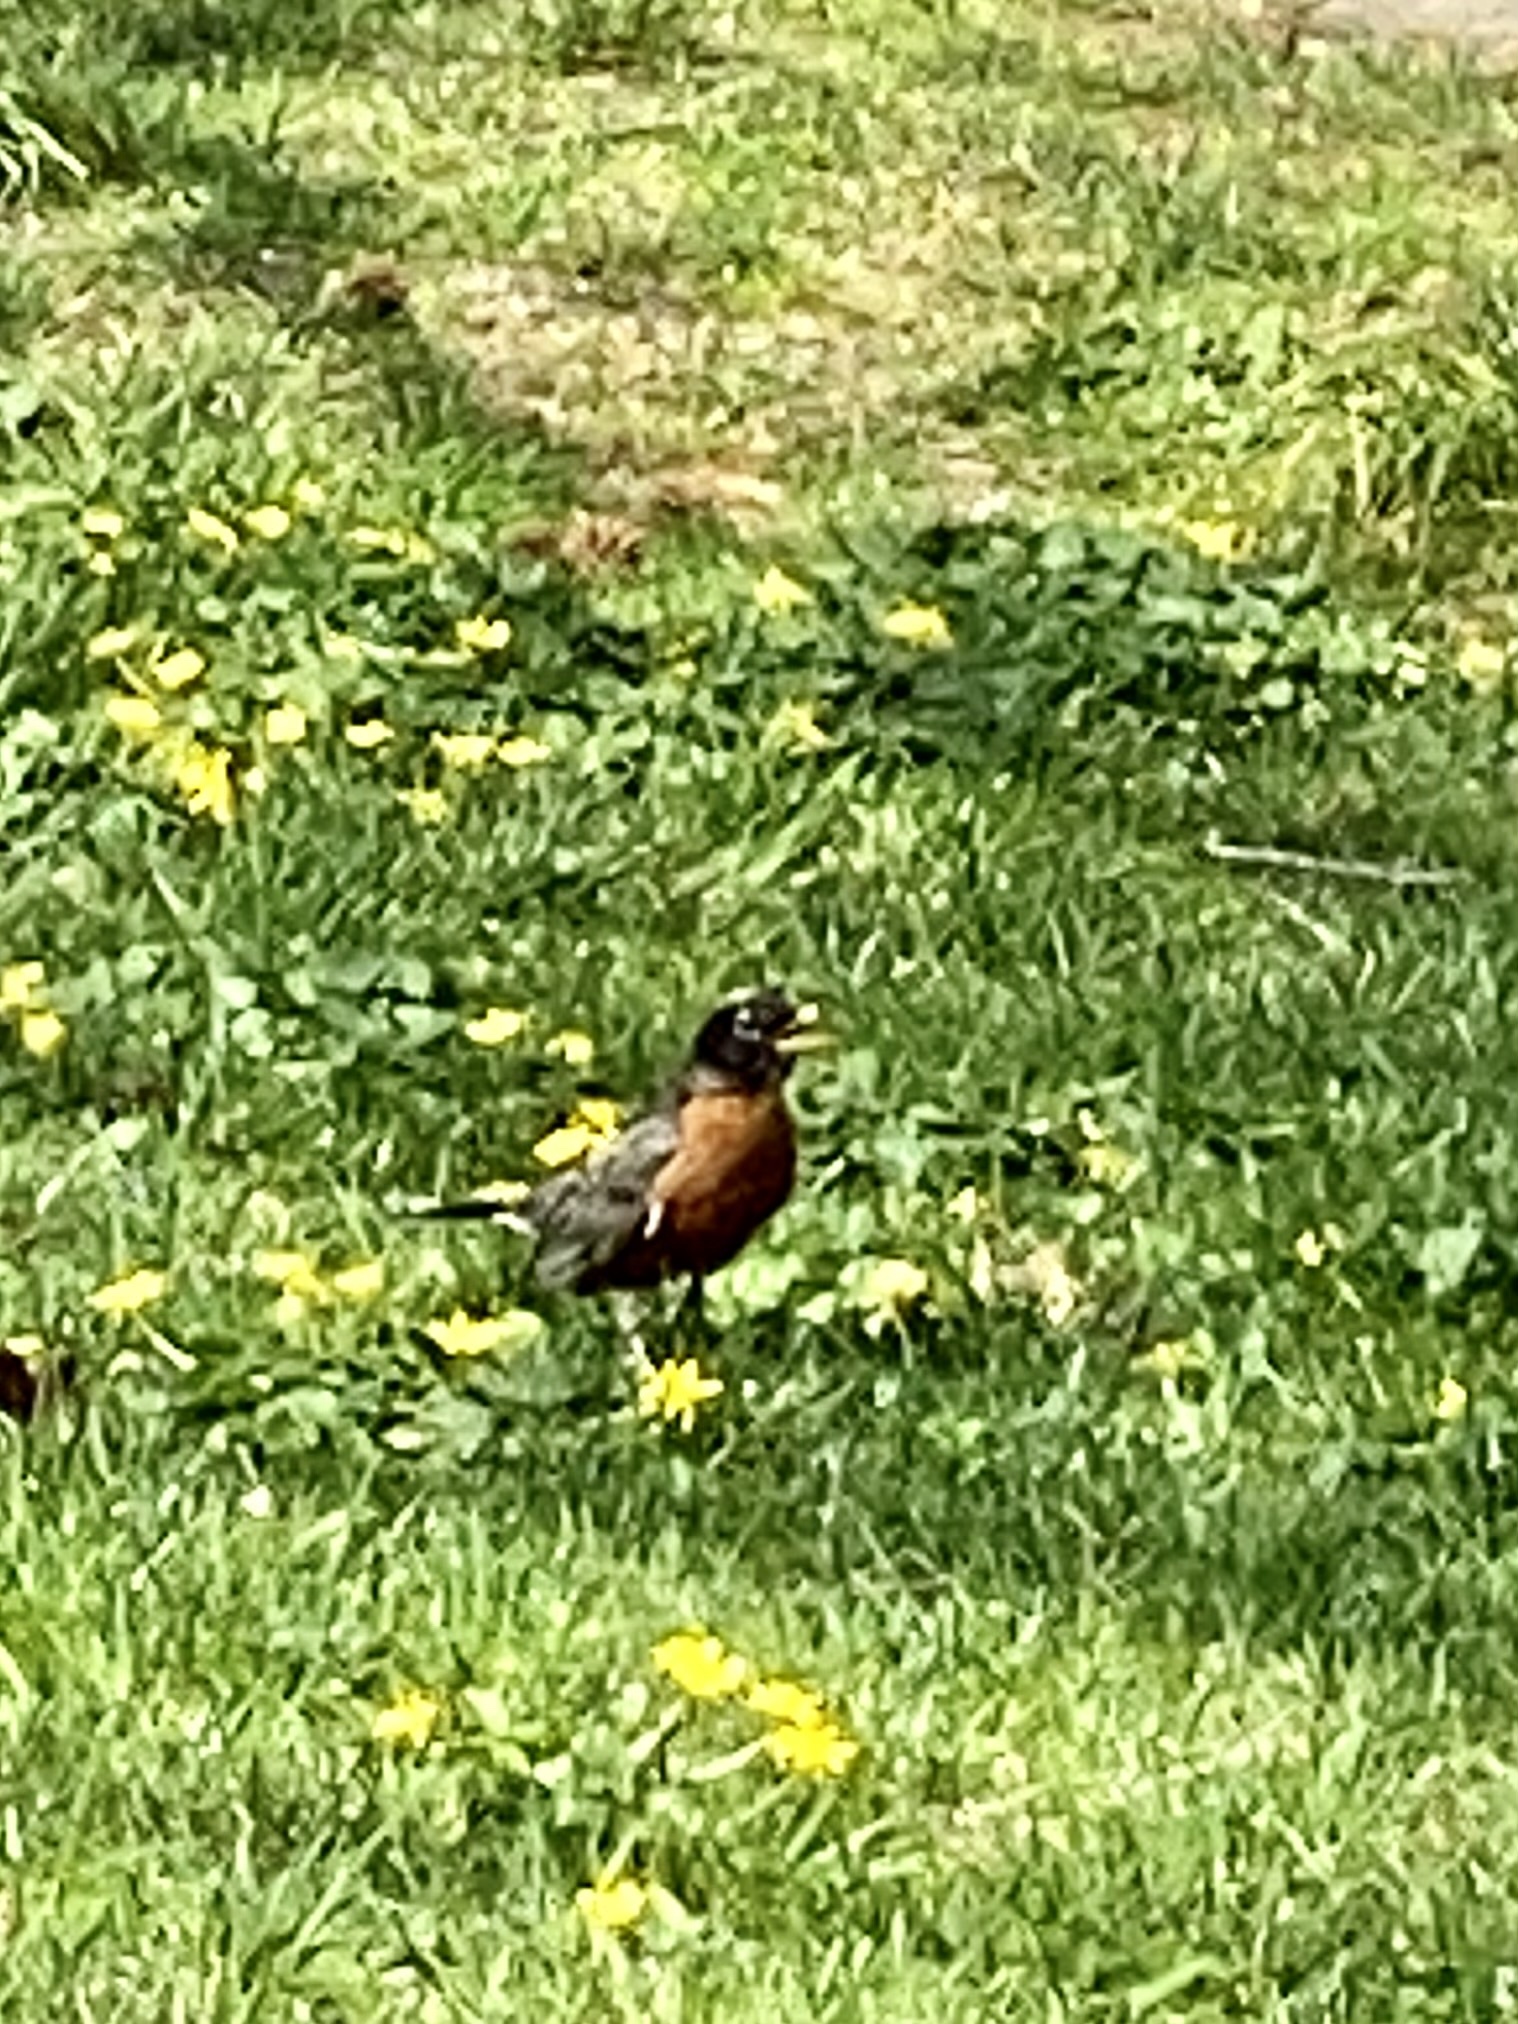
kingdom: Animalia
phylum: Chordata
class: Aves
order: Passeriformes
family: Turdidae
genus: Turdus
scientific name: Turdus migratorius
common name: American robin
